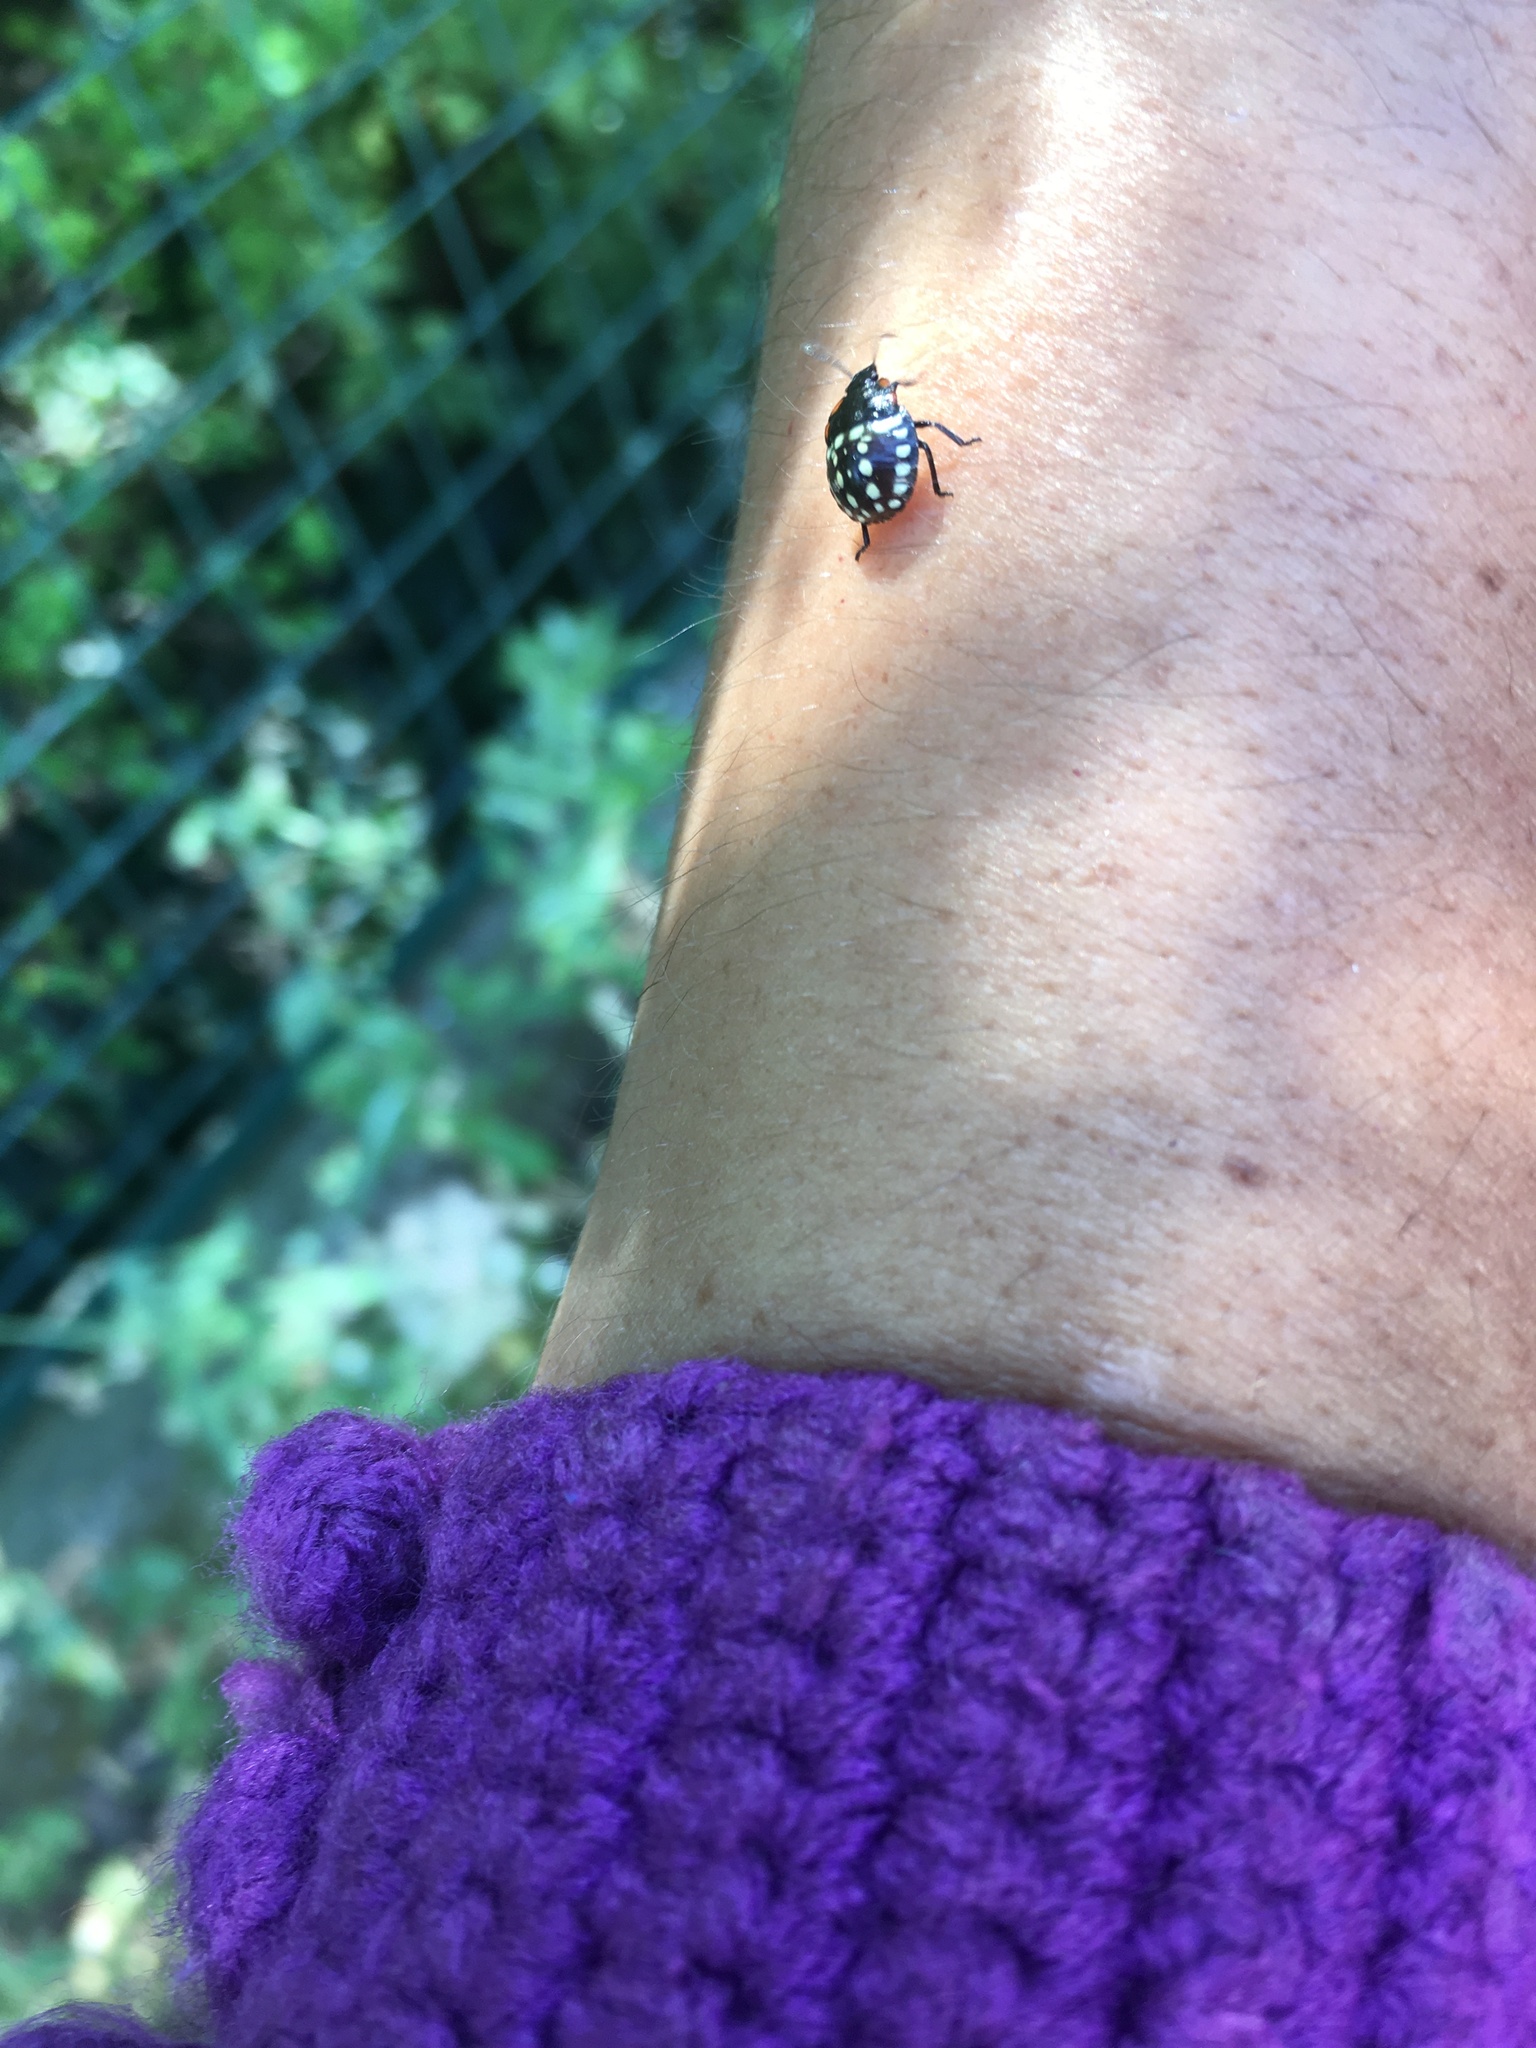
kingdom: Animalia
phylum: Arthropoda
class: Insecta
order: Hemiptera
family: Pentatomidae
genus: Nezara
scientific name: Nezara viridula
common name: Southern green stink bug
